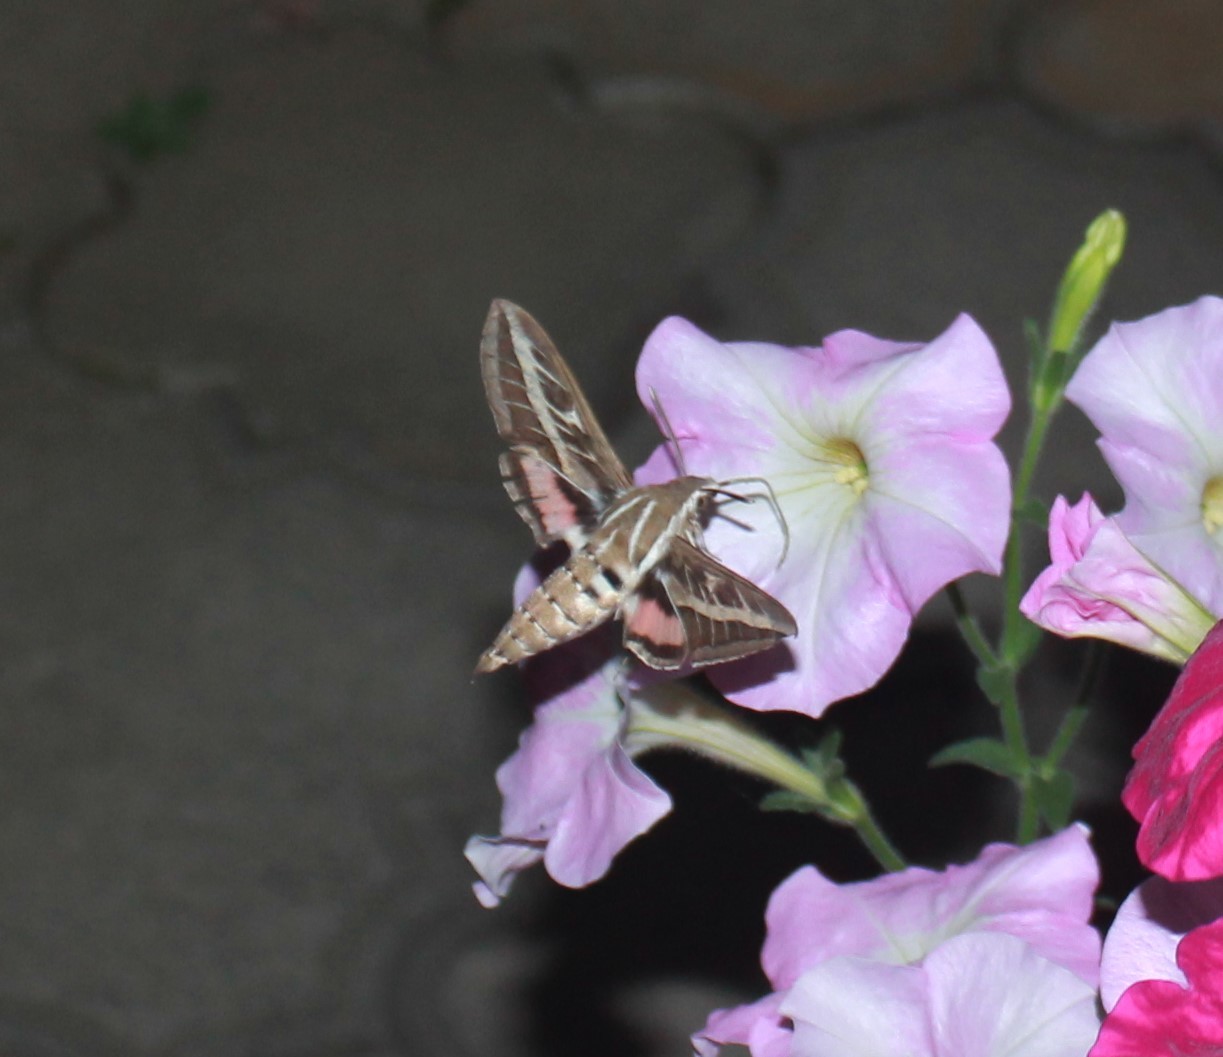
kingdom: Animalia
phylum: Arthropoda
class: Insecta
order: Lepidoptera
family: Sphingidae
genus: Hyles
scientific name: Hyles livornica
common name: Striped hawk-moth
